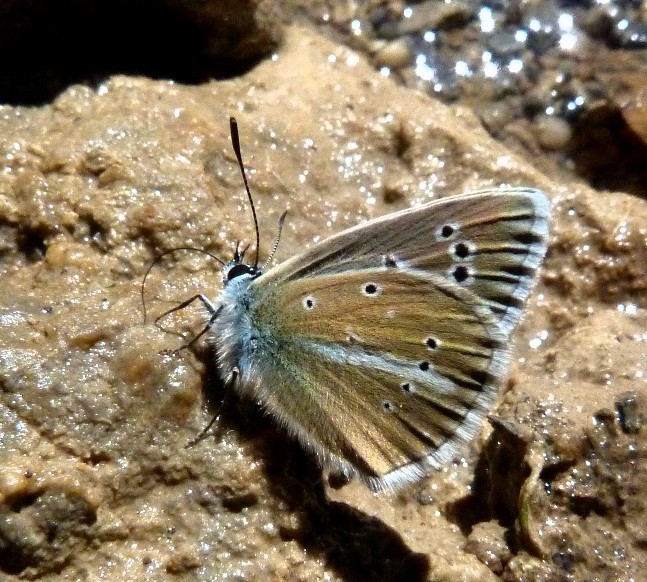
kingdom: Animalia
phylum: Arthropoda
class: Insecta
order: Lepidoptera
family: Lycaenidae
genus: Agrodiaetus
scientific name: Agrodiaetus damon
